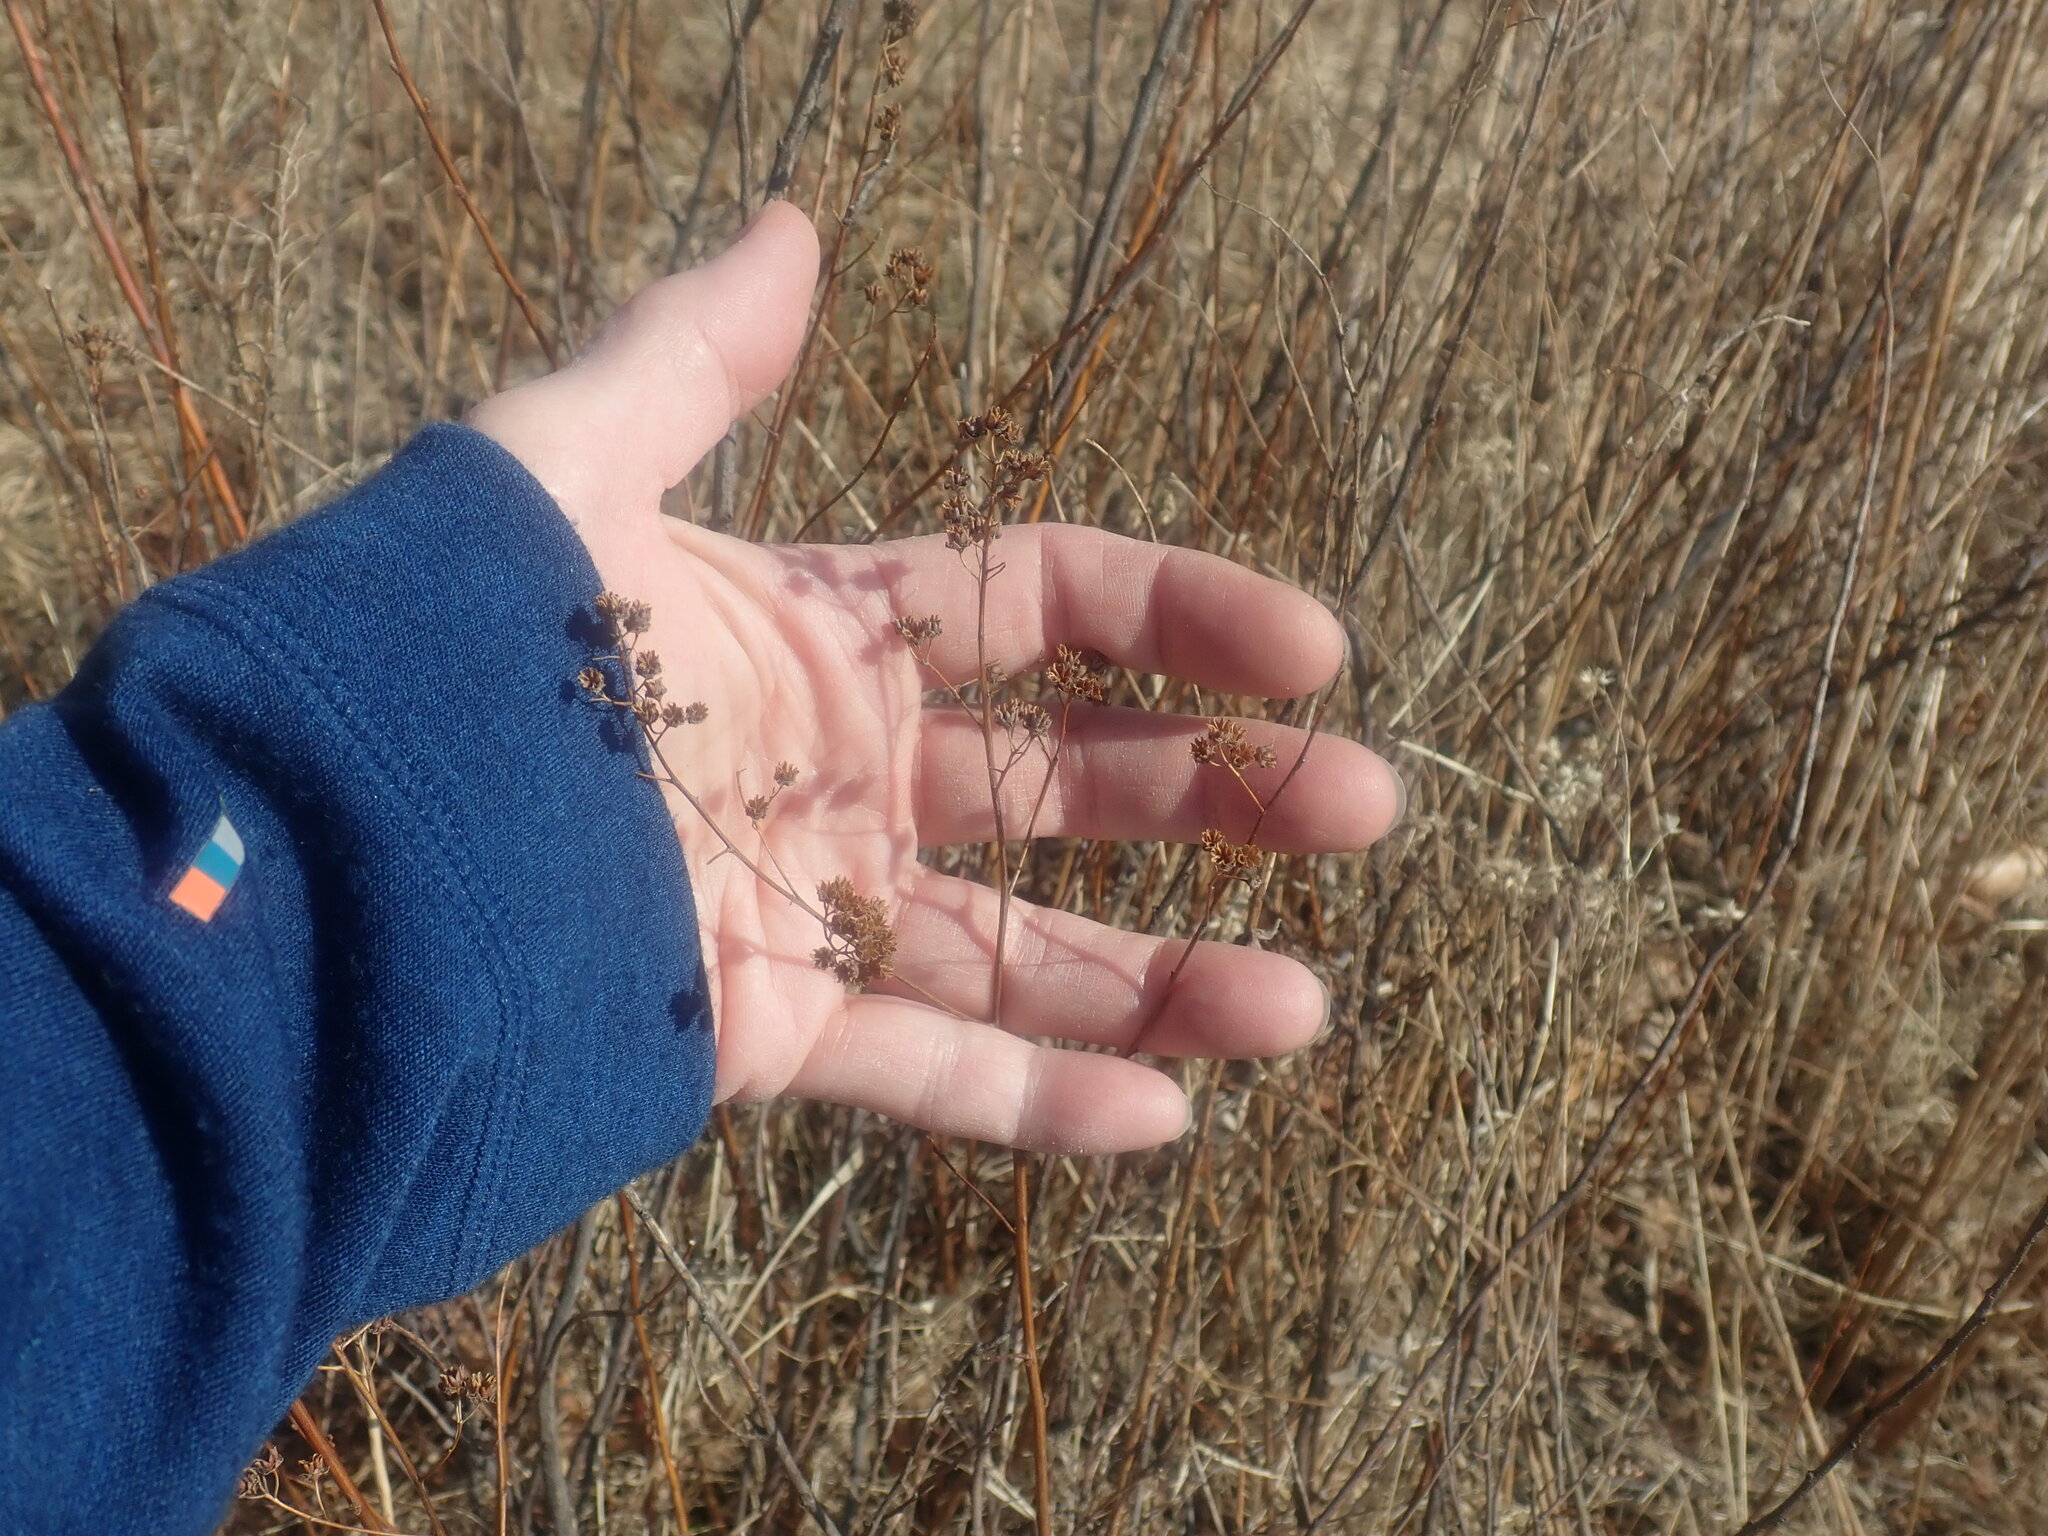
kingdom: Plantae
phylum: Tracheophyta
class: Magnoliopsida
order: Rosales
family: Rosaceae
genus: Spiraea
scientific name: Spiraea alba
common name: Pale bridewort
